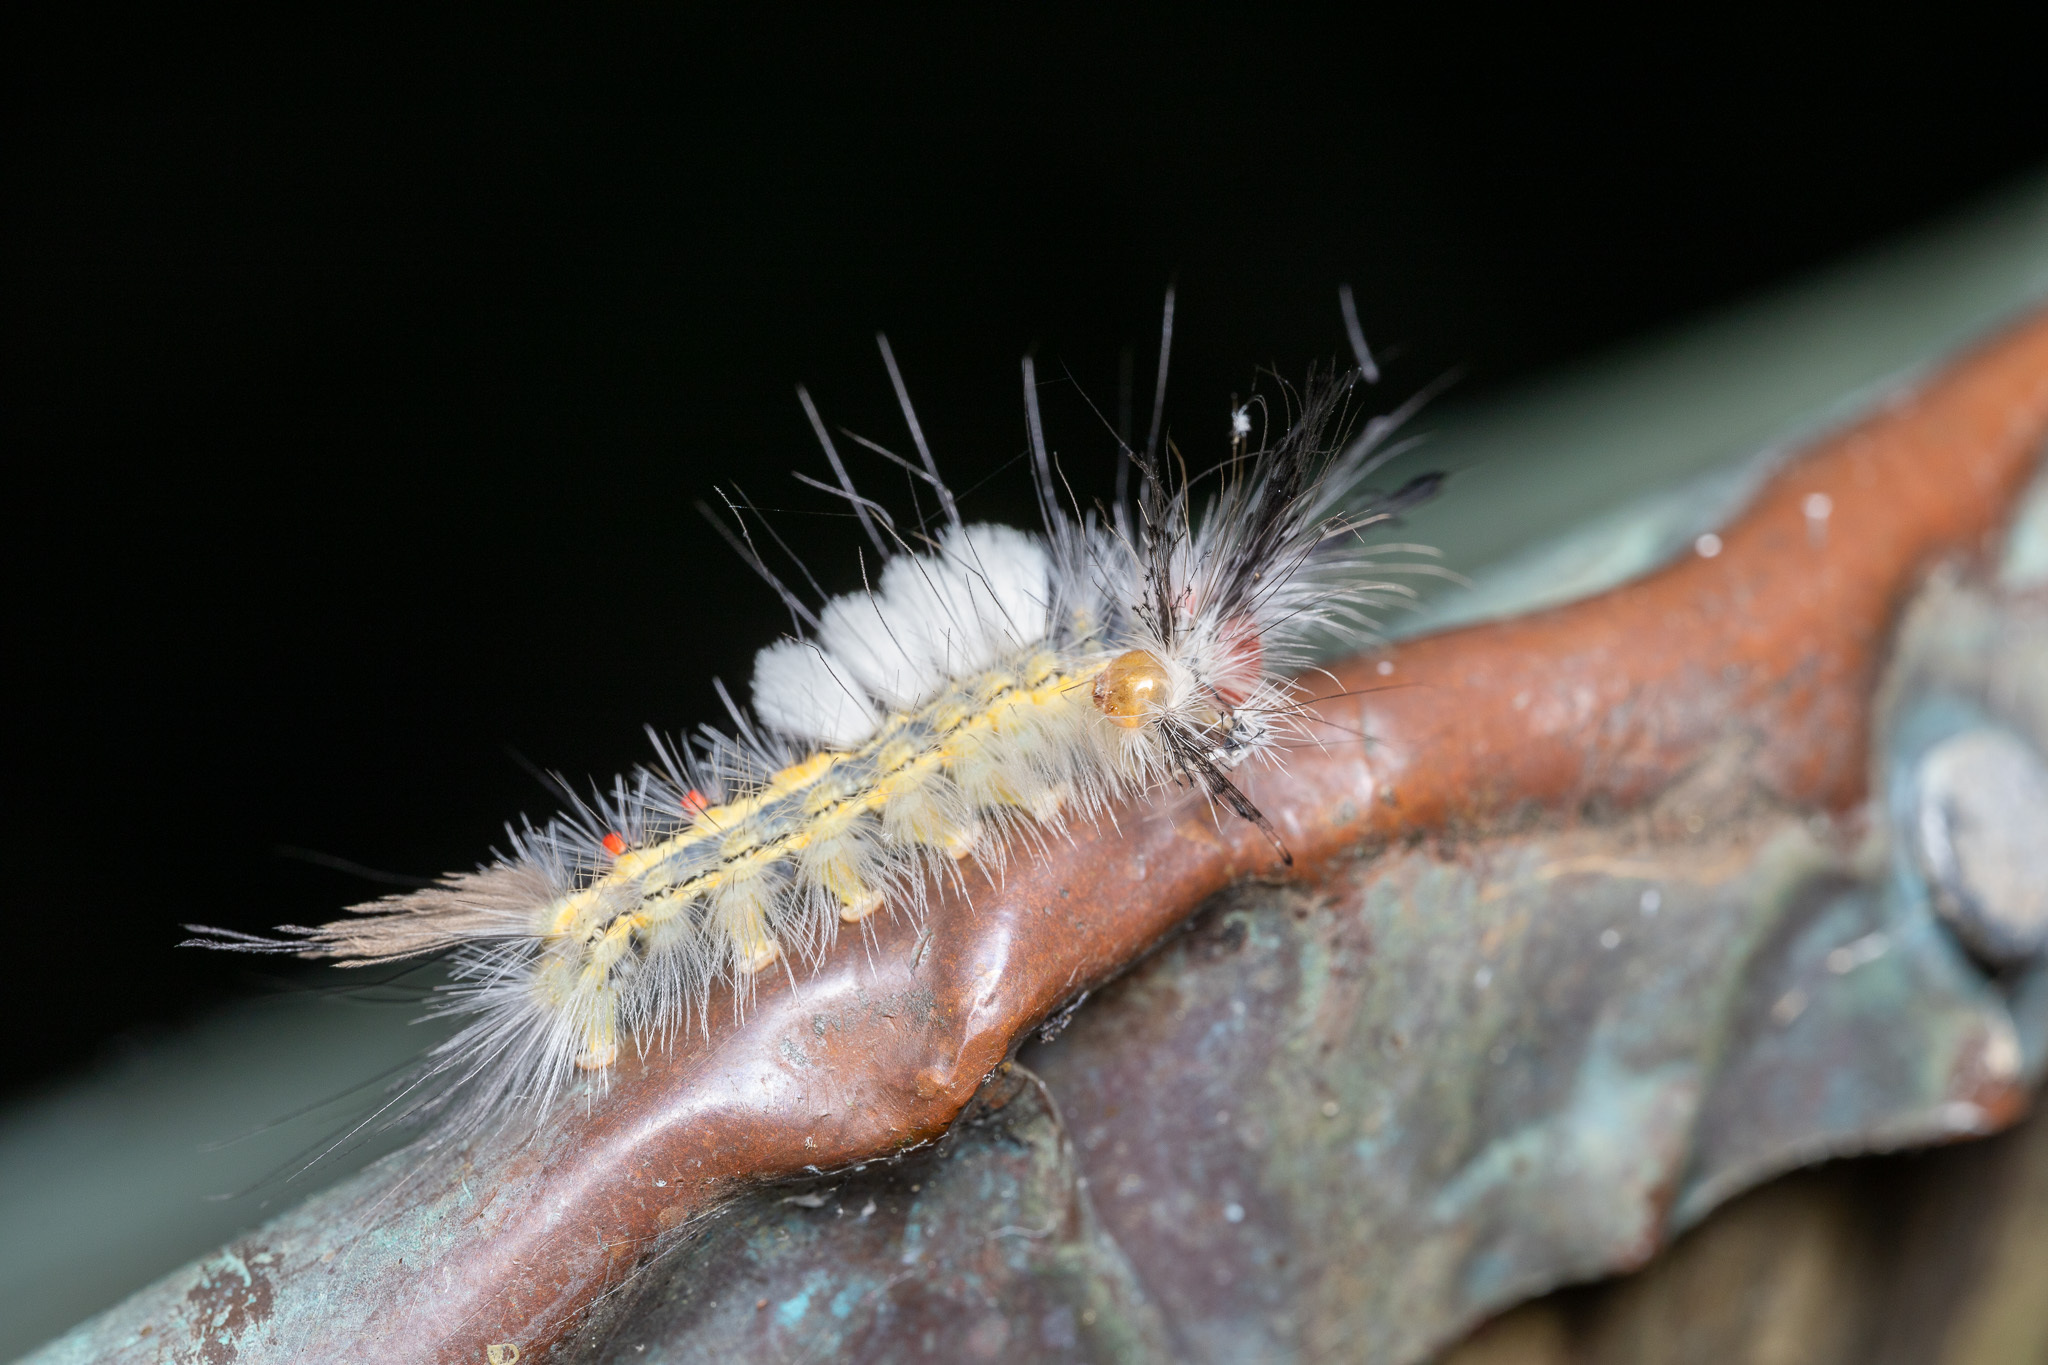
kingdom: Animalia
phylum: Arthropoda
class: Insecta
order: Lepidoptera
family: Erebidae
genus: Orgyia
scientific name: Orgyia leucostigma
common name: White-marked tussock moth
